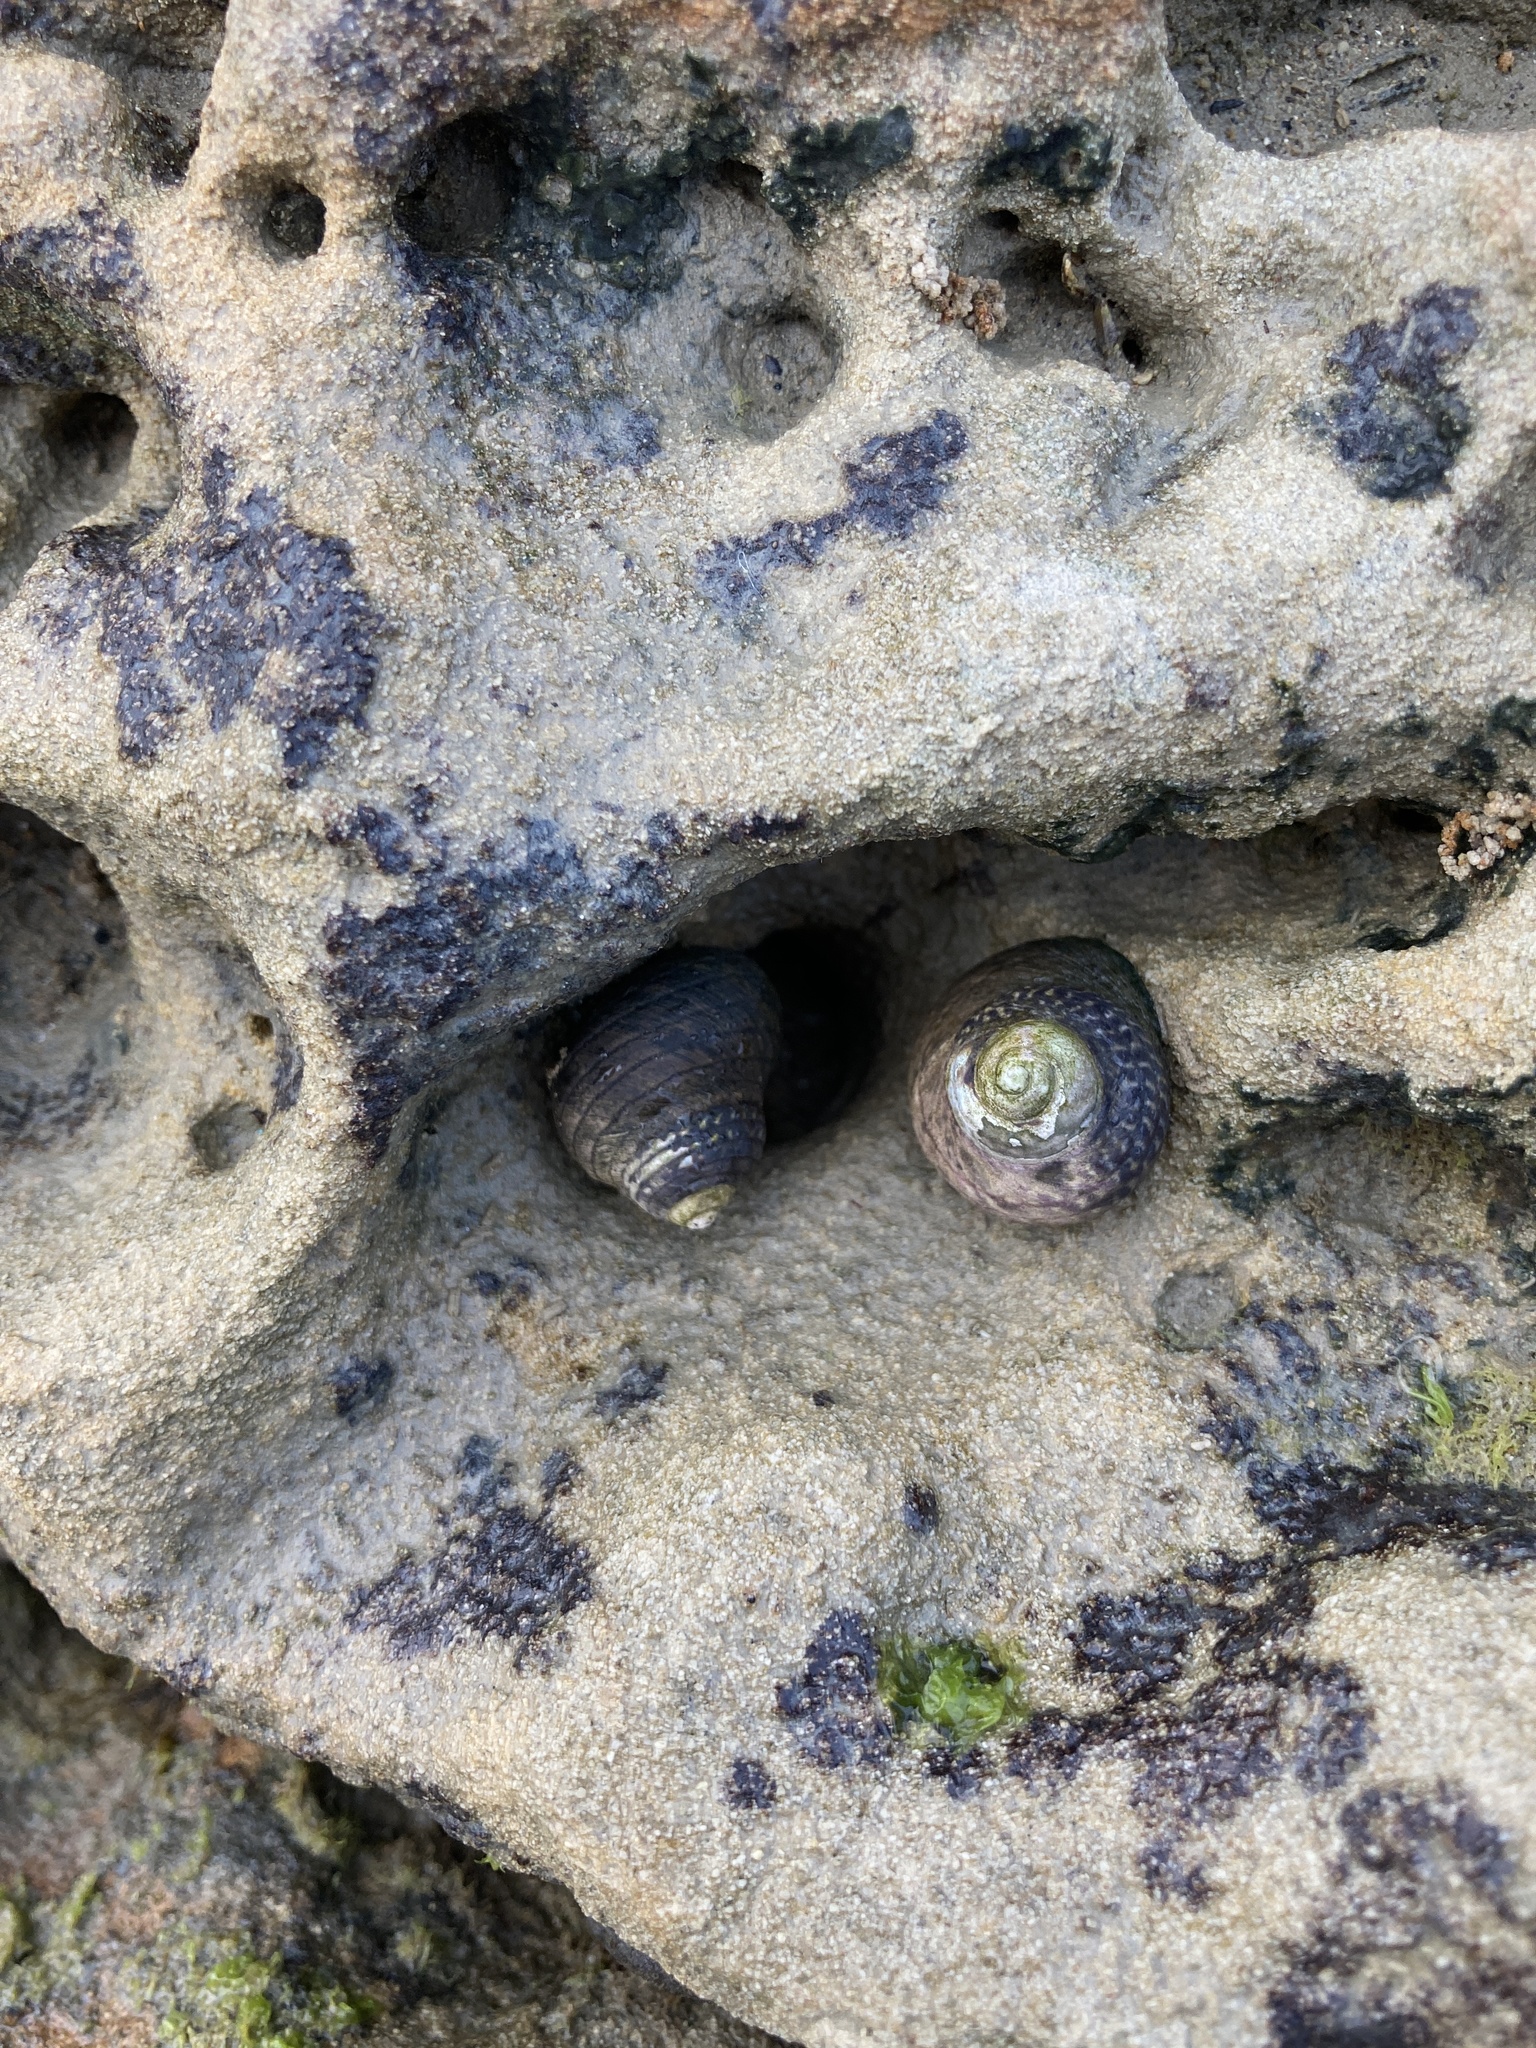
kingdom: Animalia
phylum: Mollusca
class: Gastropoda
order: Trochida
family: Trochidae
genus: Diloma
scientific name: Diloma aethiops
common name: Scorched monodont
